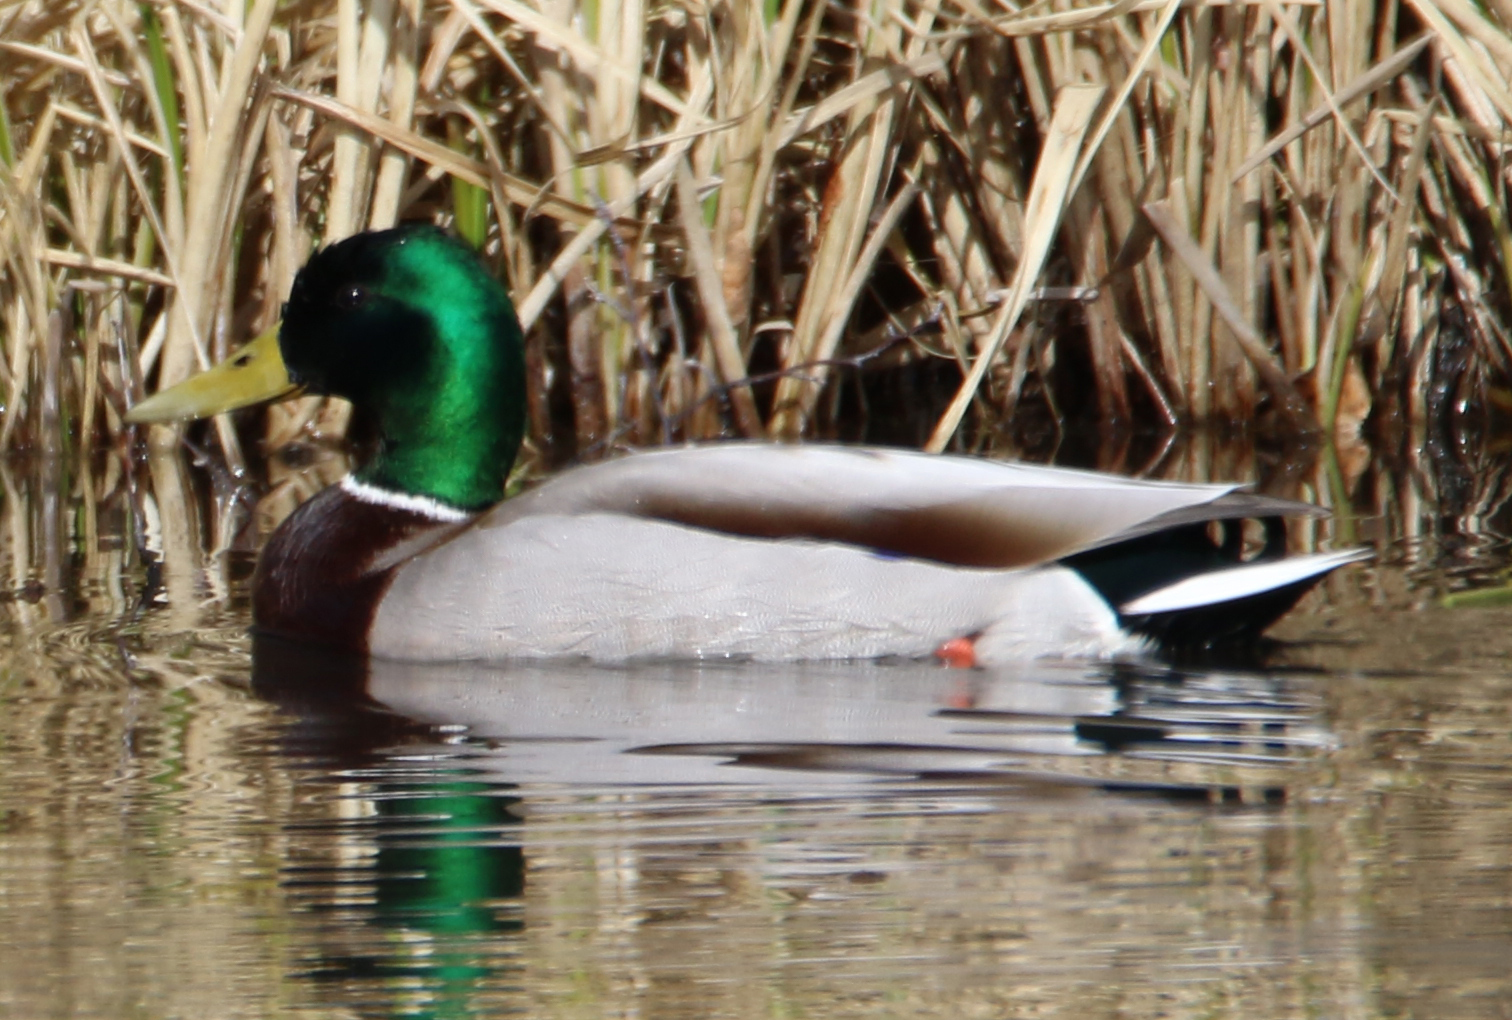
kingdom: Animalia
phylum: Chordata
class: Aves
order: Anseriformes
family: Anatidae
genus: Anas
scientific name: Anas platyrhynchos
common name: Mallard
